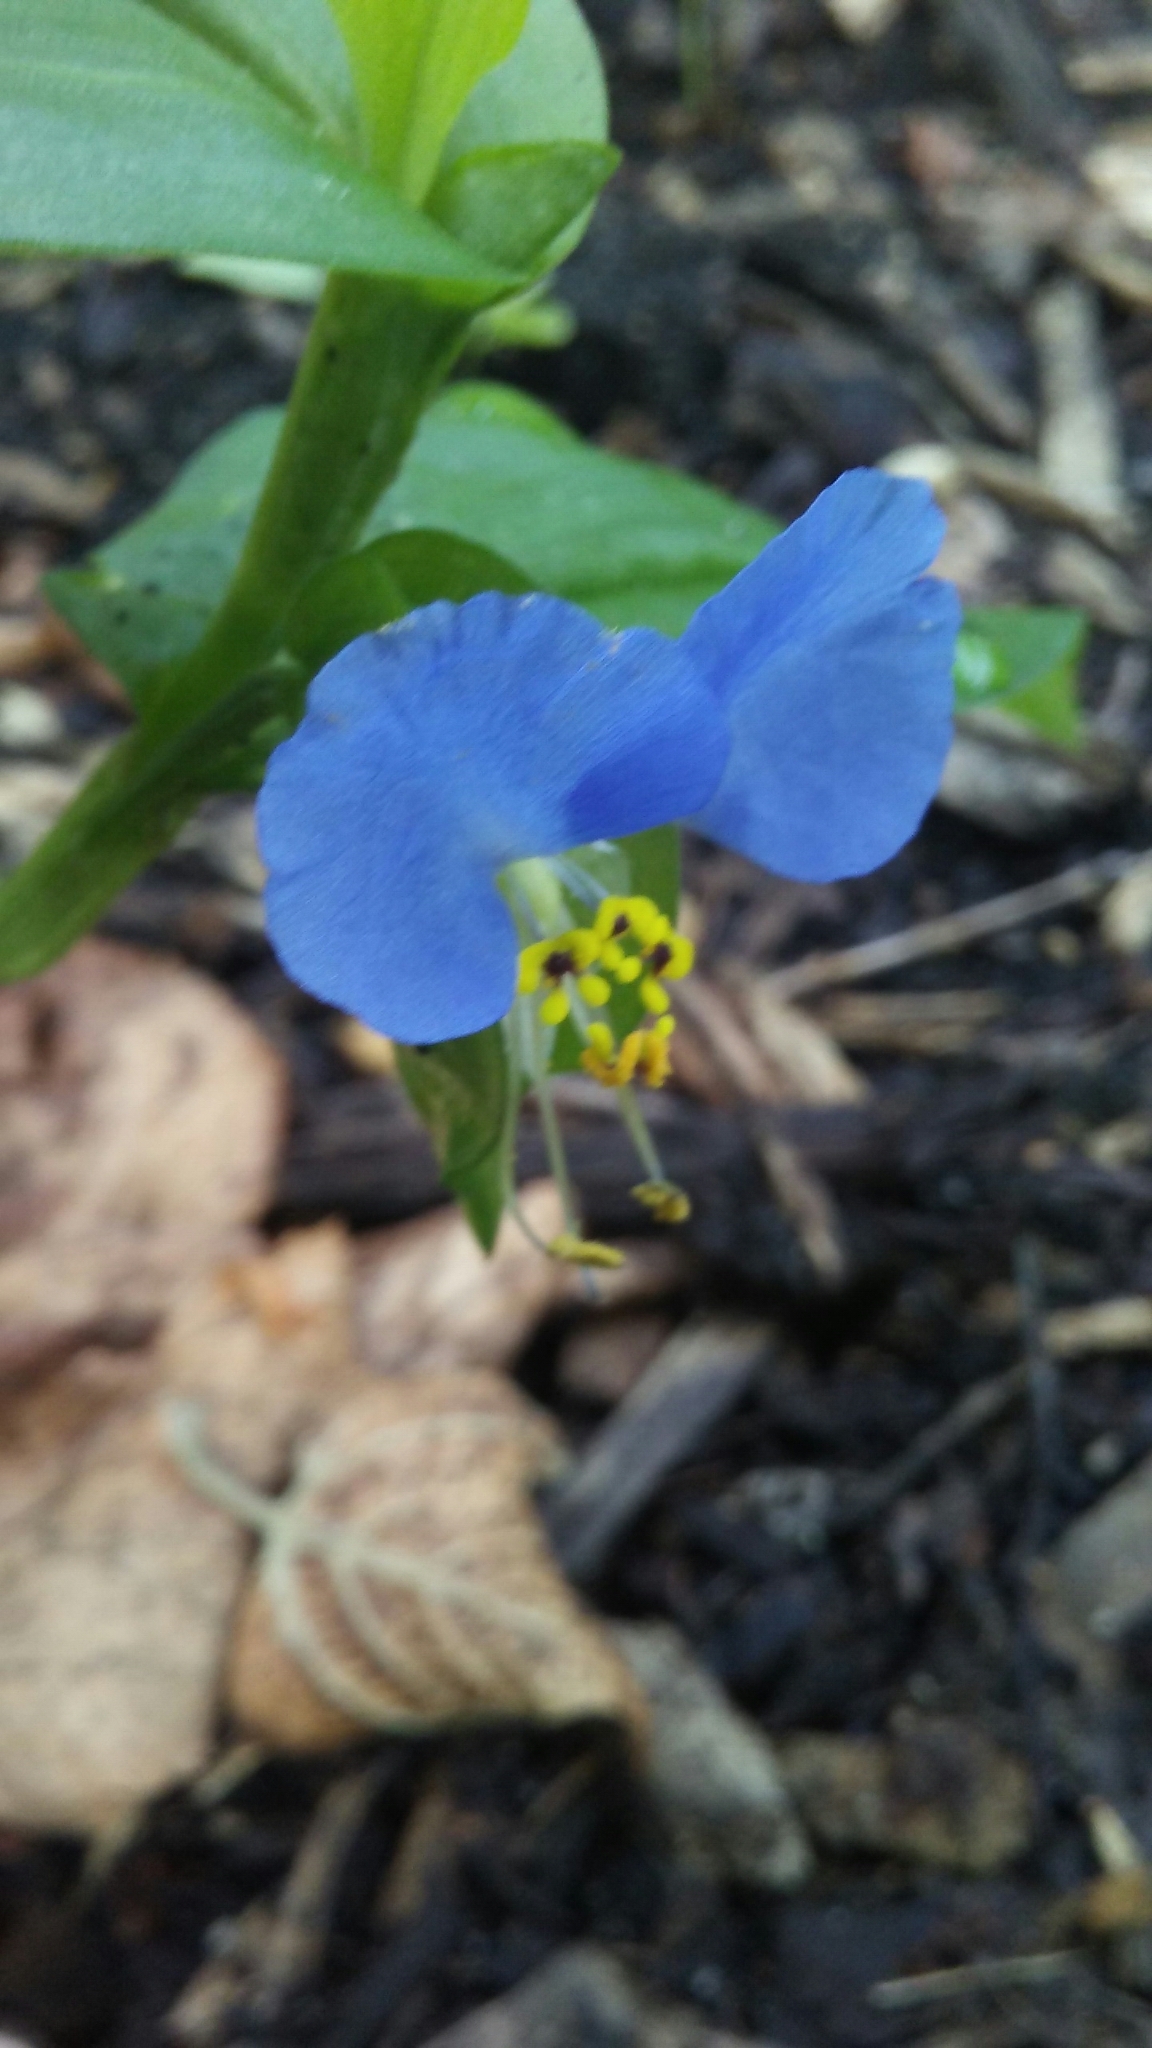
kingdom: Plantae
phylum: Tracheophyta
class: Liliopsida
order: Commelinales
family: Commelinaceae
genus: Commelina
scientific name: Commelina communis
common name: Asiatic dayflower
